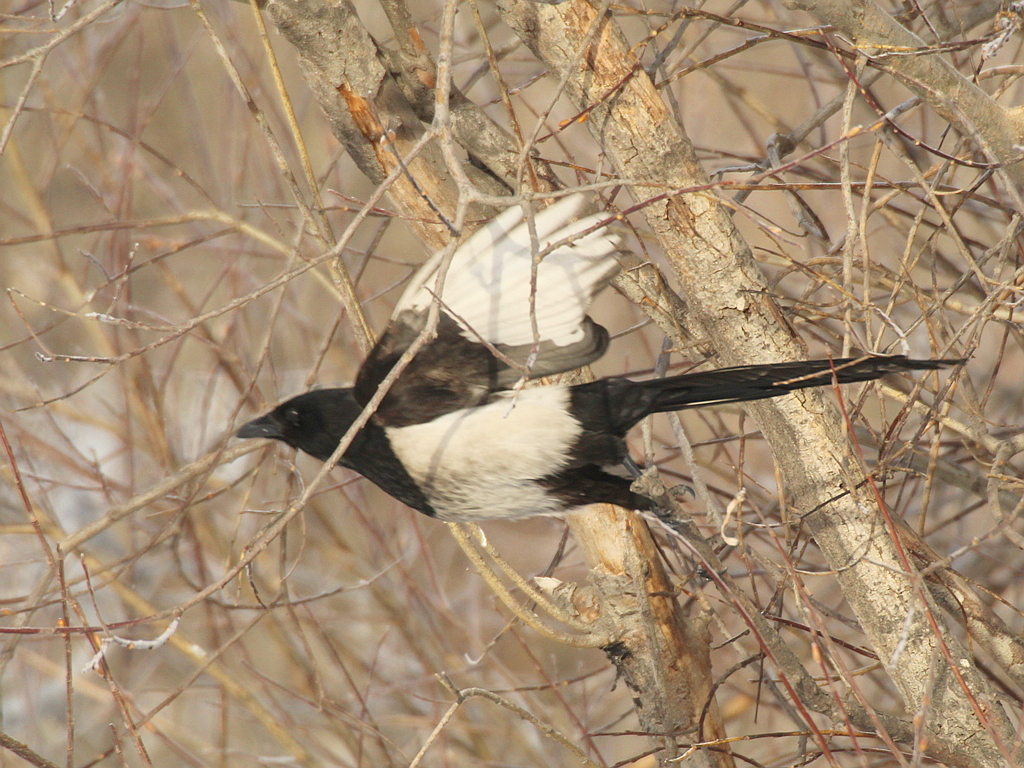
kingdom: Animalia
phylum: Chordata
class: Aves
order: Passeriformes
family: Corvidae
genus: Pica
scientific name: Pica pica
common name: Eurasian magpie
